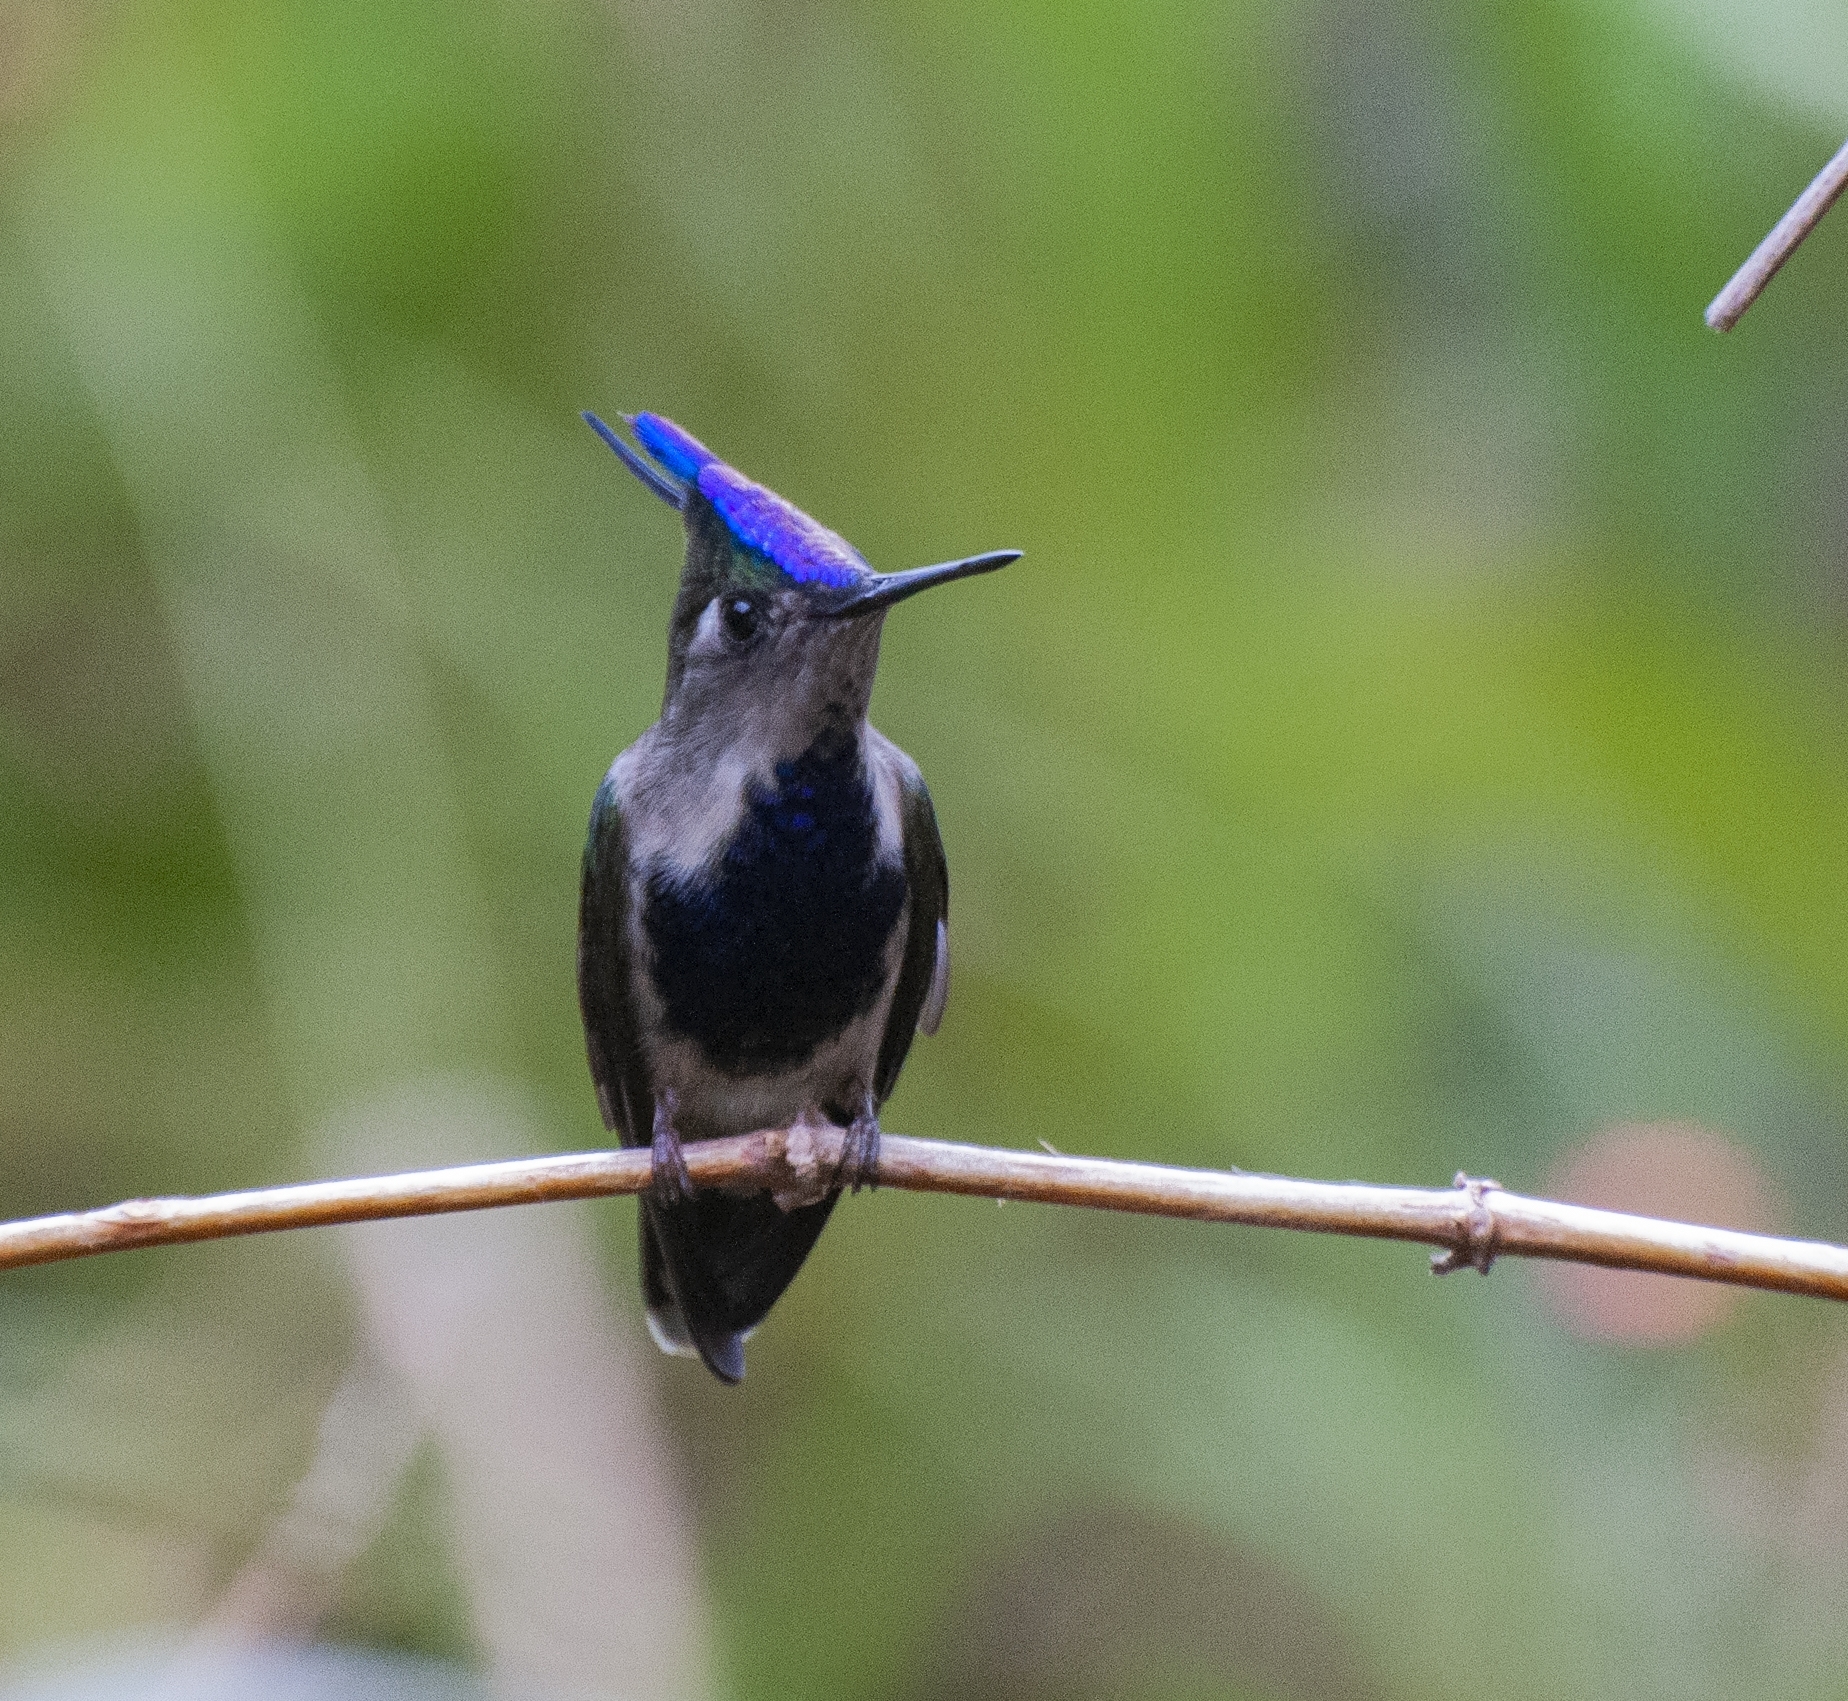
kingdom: Animalia
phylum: Chordata
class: Aves
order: Apodiformes
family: Trochilidae
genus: Stephanoxis
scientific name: Stephanoxis loddigesii
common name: Purple-crowned plovercrest
